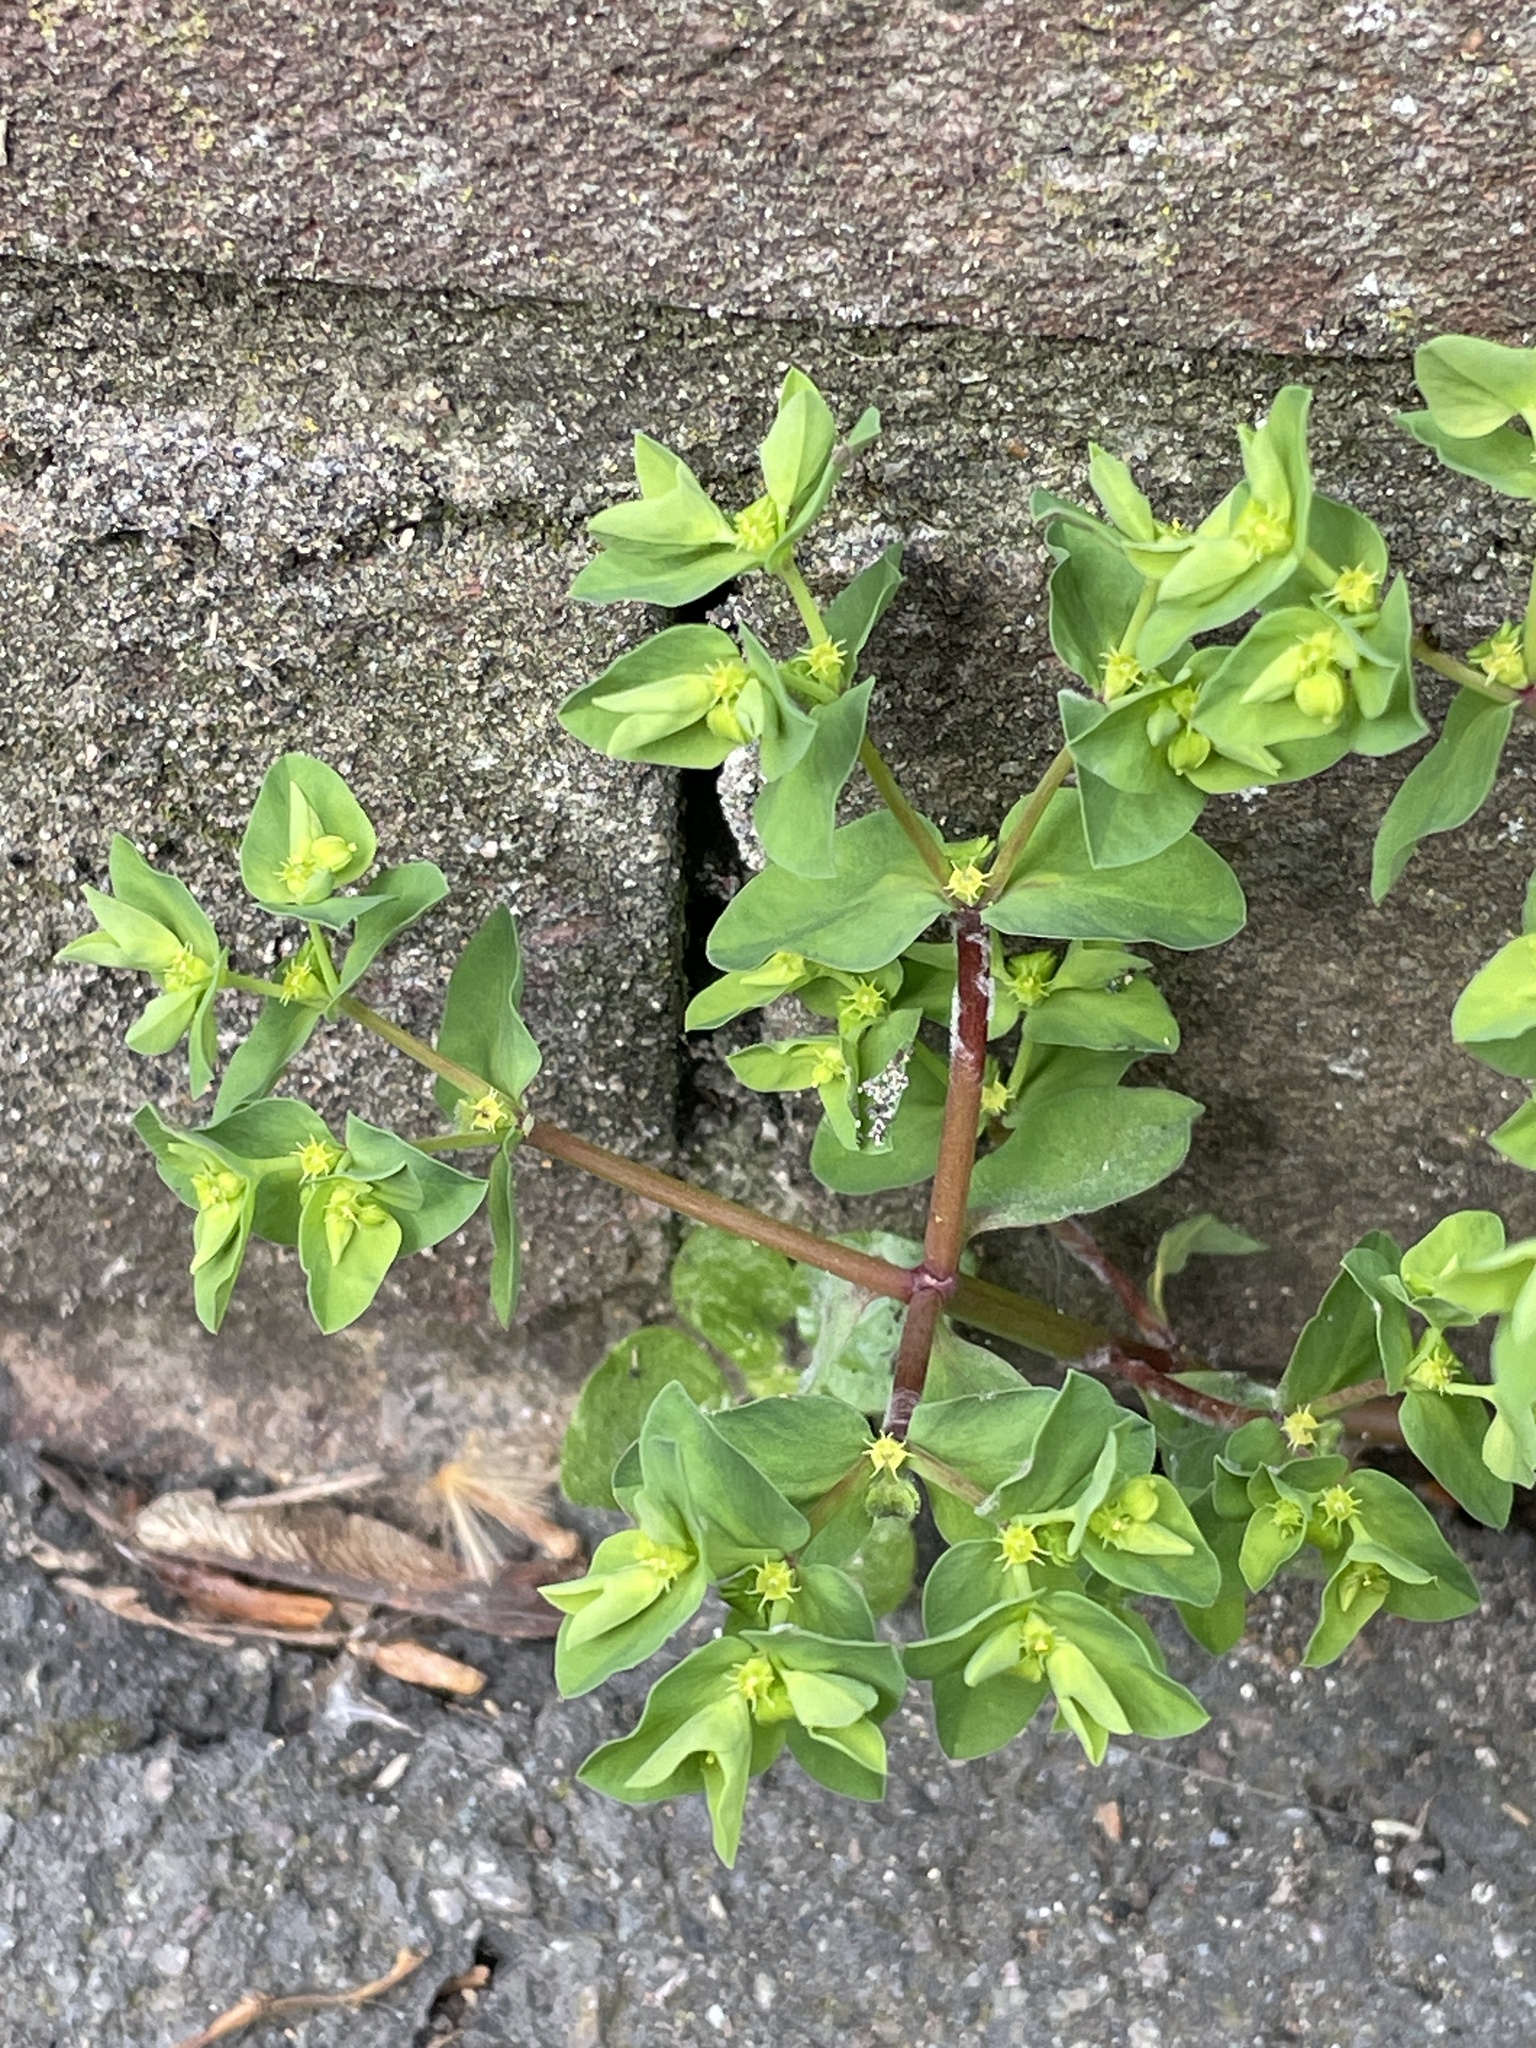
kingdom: Plantae
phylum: Tracheophyta
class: Magnoliopsida
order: Malpighiales
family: Euphorbiaceae
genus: Euphorbia
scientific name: Euphorbia peplus
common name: Petty spurge
